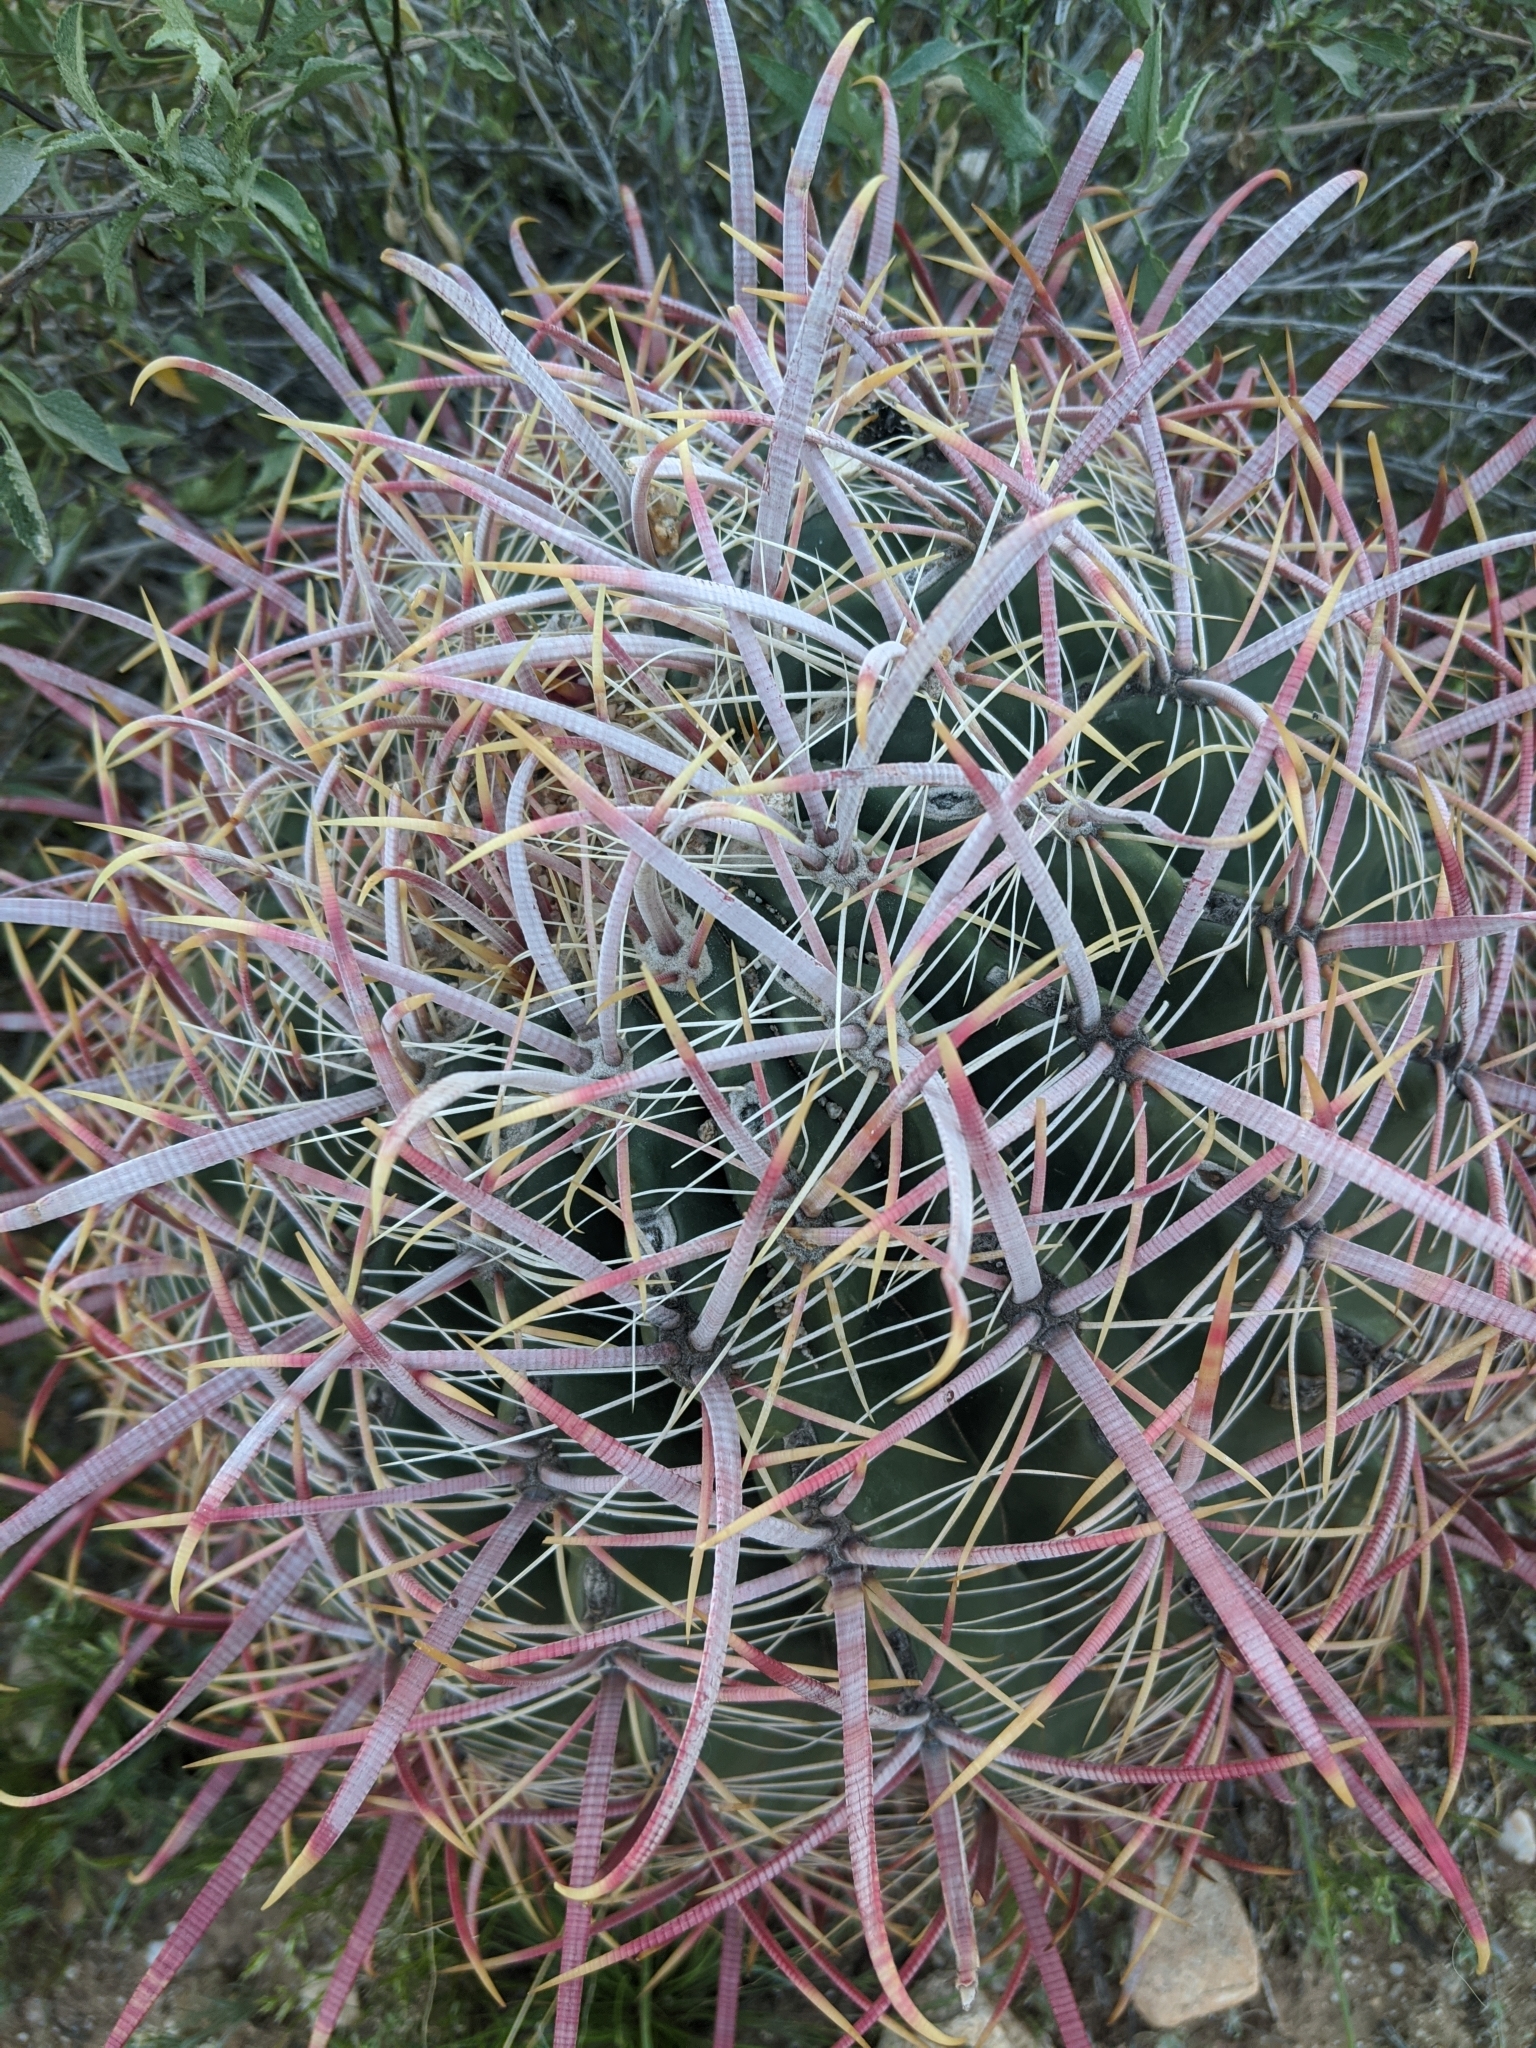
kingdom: Plantae
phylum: Tracheophyta
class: Magnoliopsida
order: Caryophyllales
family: Cactaceae
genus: Ferocactus
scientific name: Ferocactus cylindraceus
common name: California barrel cactus
